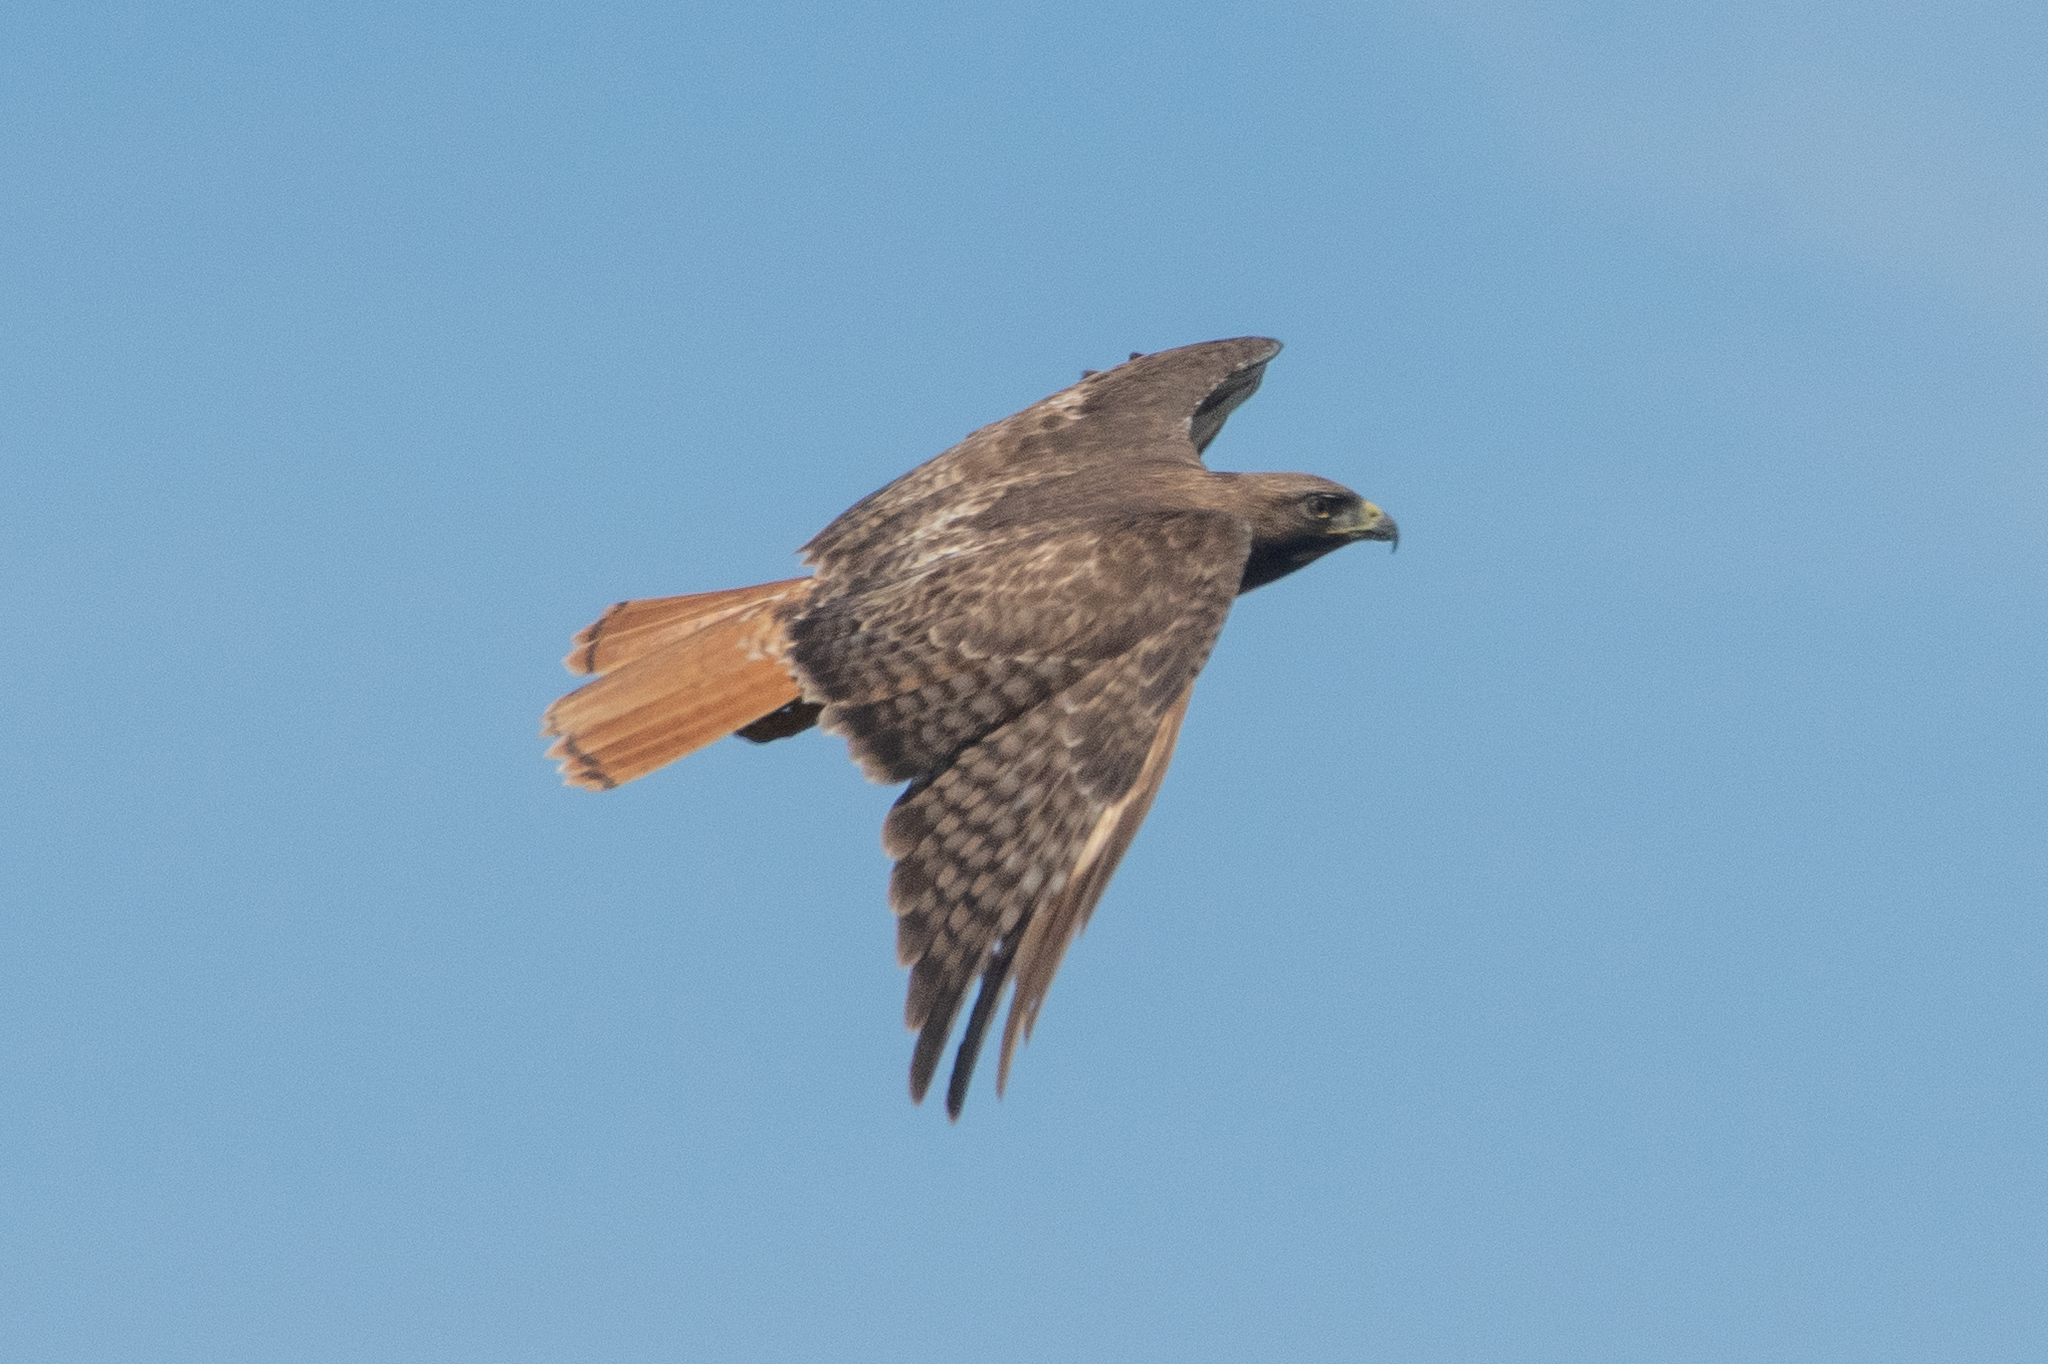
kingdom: Animalia
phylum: Chordata
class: Aves
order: Accipitriformes
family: Accipitridae
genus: Buteo
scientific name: Buteo jamaicensis
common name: Red-tailed hawk
